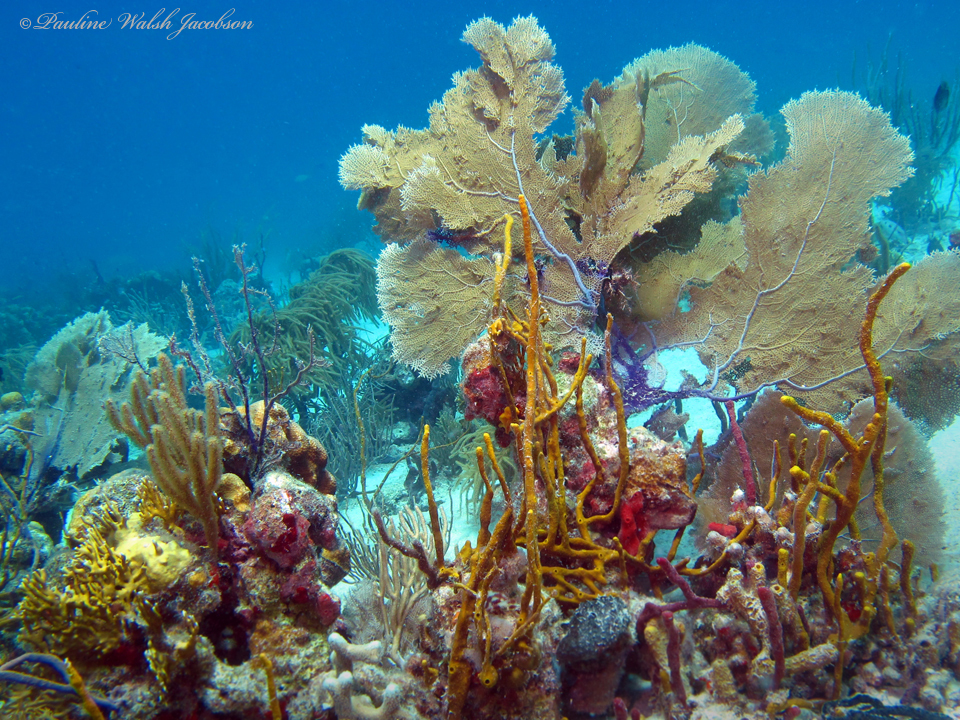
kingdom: Animalia
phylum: Cnidaria
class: Anthozoa
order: Malacalcyonacea
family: Gorgoniidae
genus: Gorgonia
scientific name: Gorgonia ventalina
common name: Common sea fan
